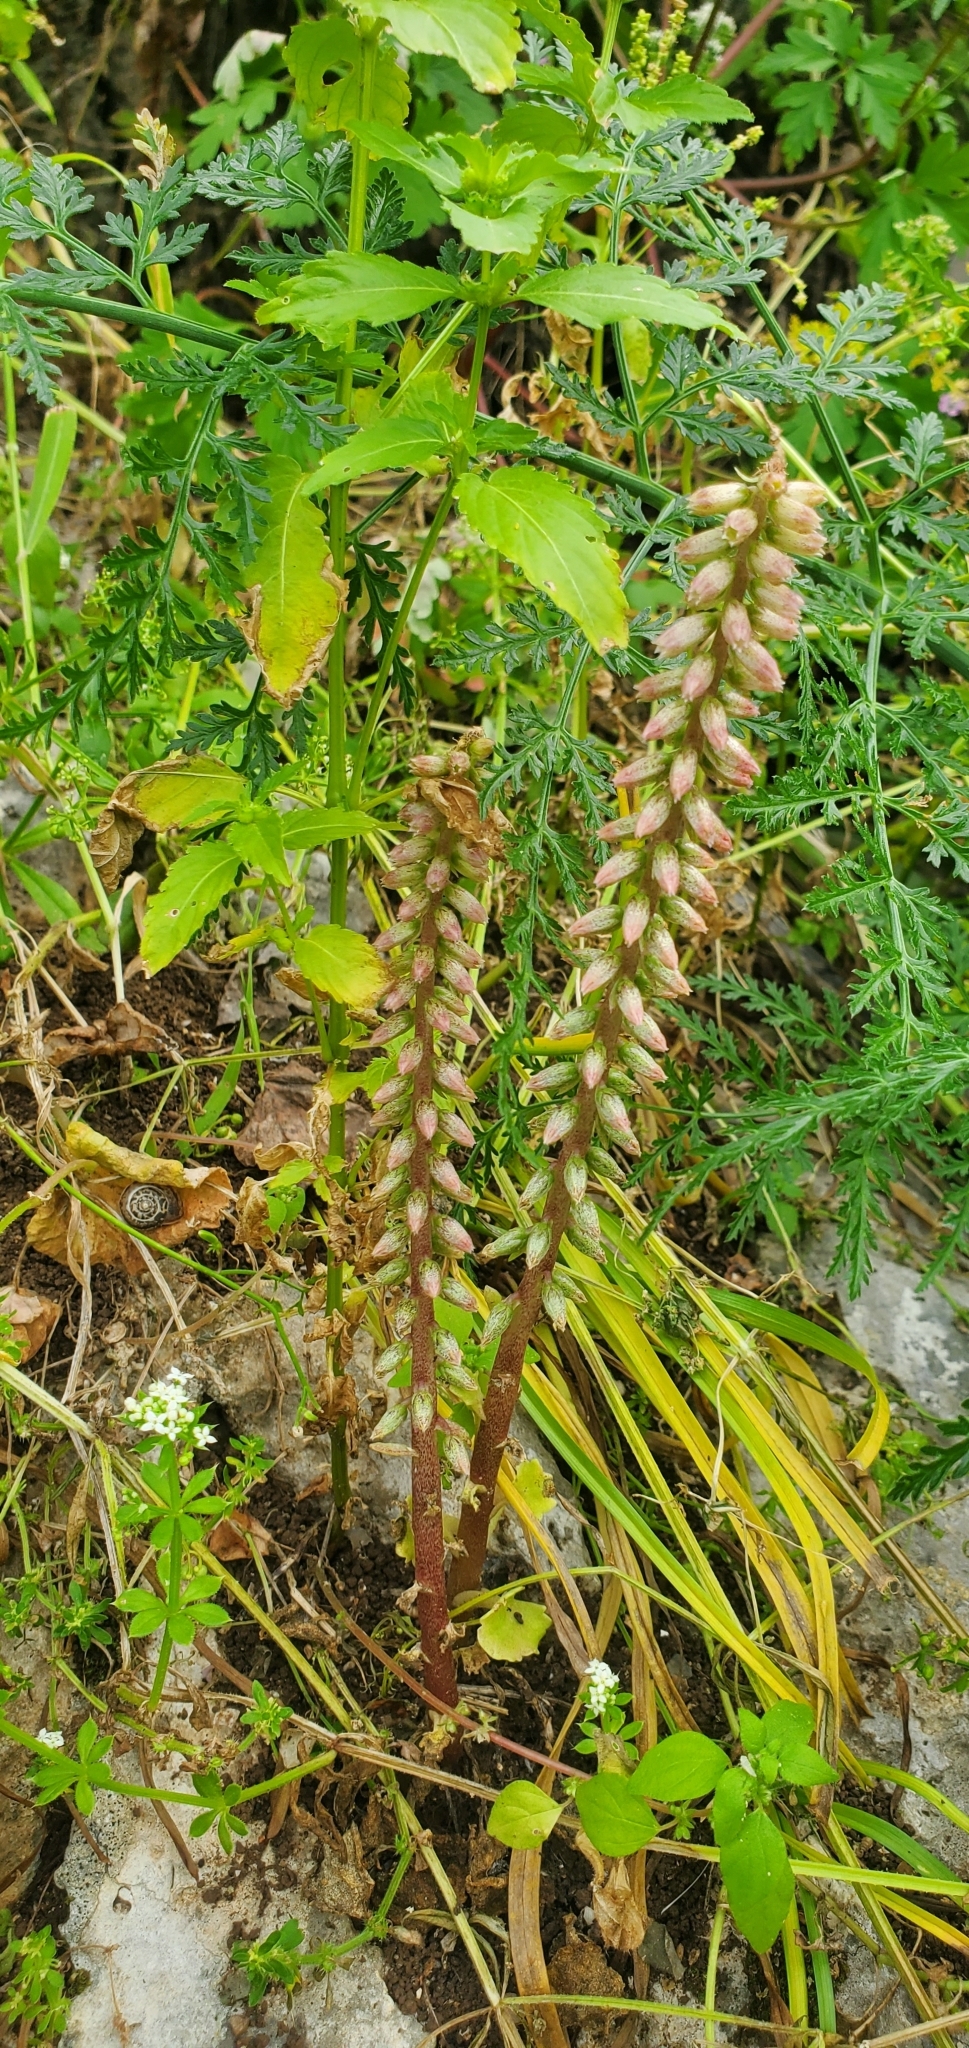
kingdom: Plantae
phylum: Tracheophyta
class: Magnoliopsida
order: Saxifragales
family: Crassulaceae
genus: Umbilicus
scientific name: Umbilicus horizontalis
